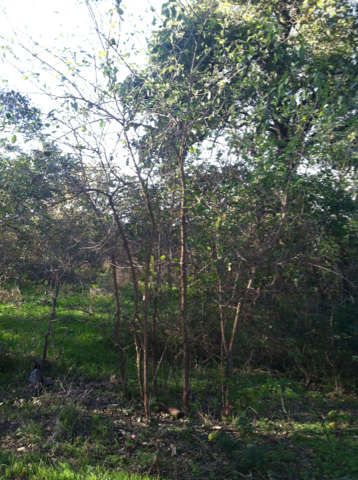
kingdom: Plantae
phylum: Tracheophyta
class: Magnoliopsida
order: Rosales
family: Moraceae
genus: Maclura
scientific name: Maclura pomifera
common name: Osage-orange
